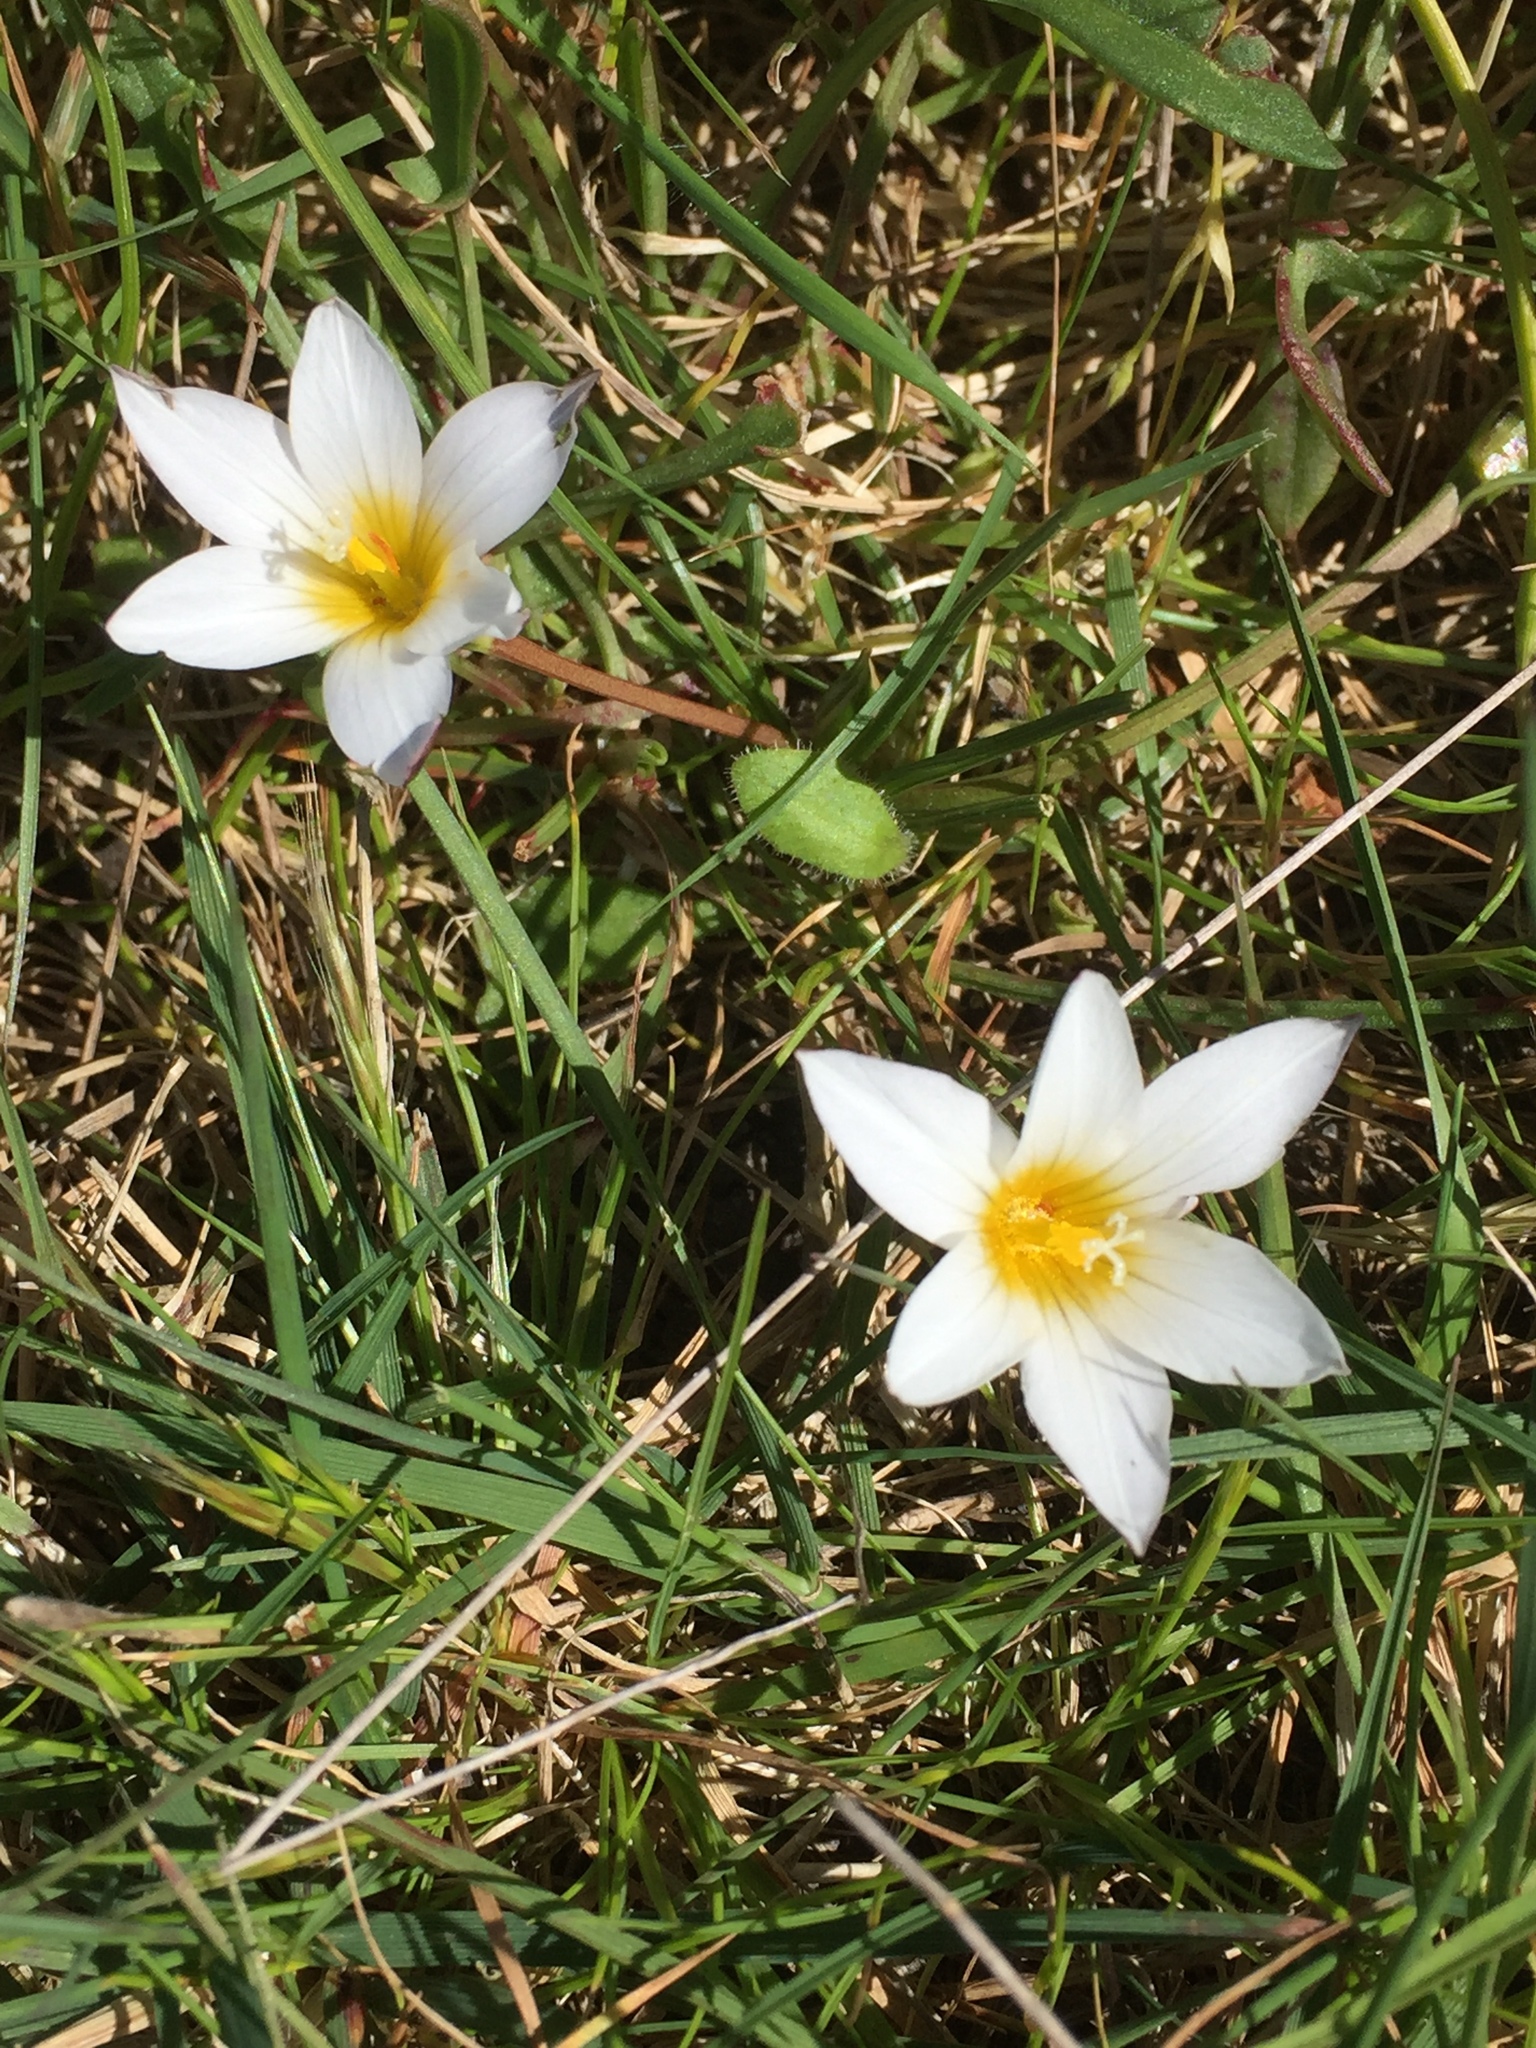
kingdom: Plantae
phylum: Tracheophyta
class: Liliopsida
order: Asparagales
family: Iridaceae
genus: Romulea
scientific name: Romulea bulbocodium
